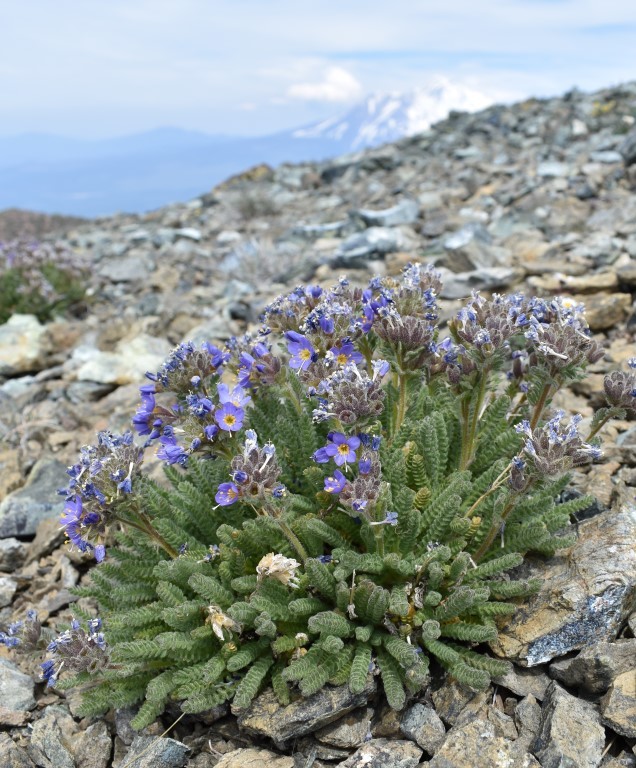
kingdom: Plantae
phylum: Tracheophyta
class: Magnoliopsida
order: Ericales
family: Polemoniaceae
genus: Polemonium
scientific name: Polemonium eddyense
